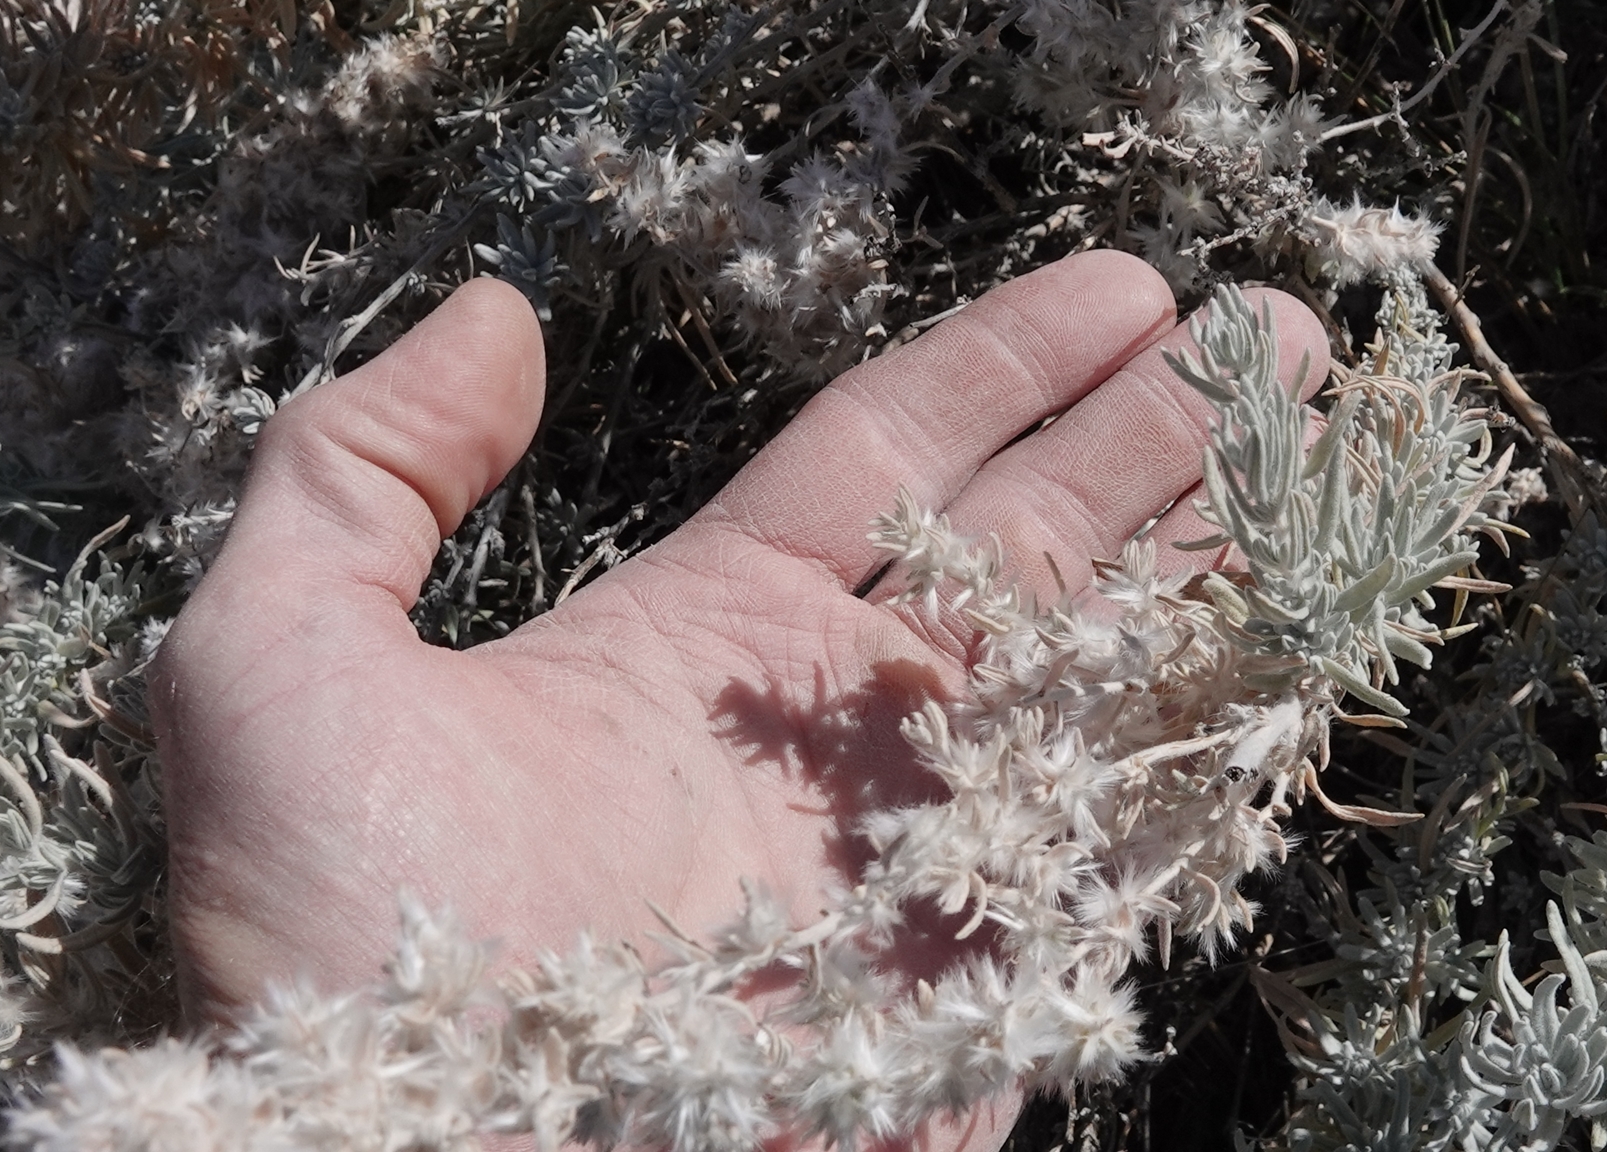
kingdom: Plantae
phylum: Tracheophyta
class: Magnoliopsida
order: Caryophyllales
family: Amaranthaceae
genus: Krascheninnikovia
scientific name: Krascheninnikovia lanata
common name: Winterfat
